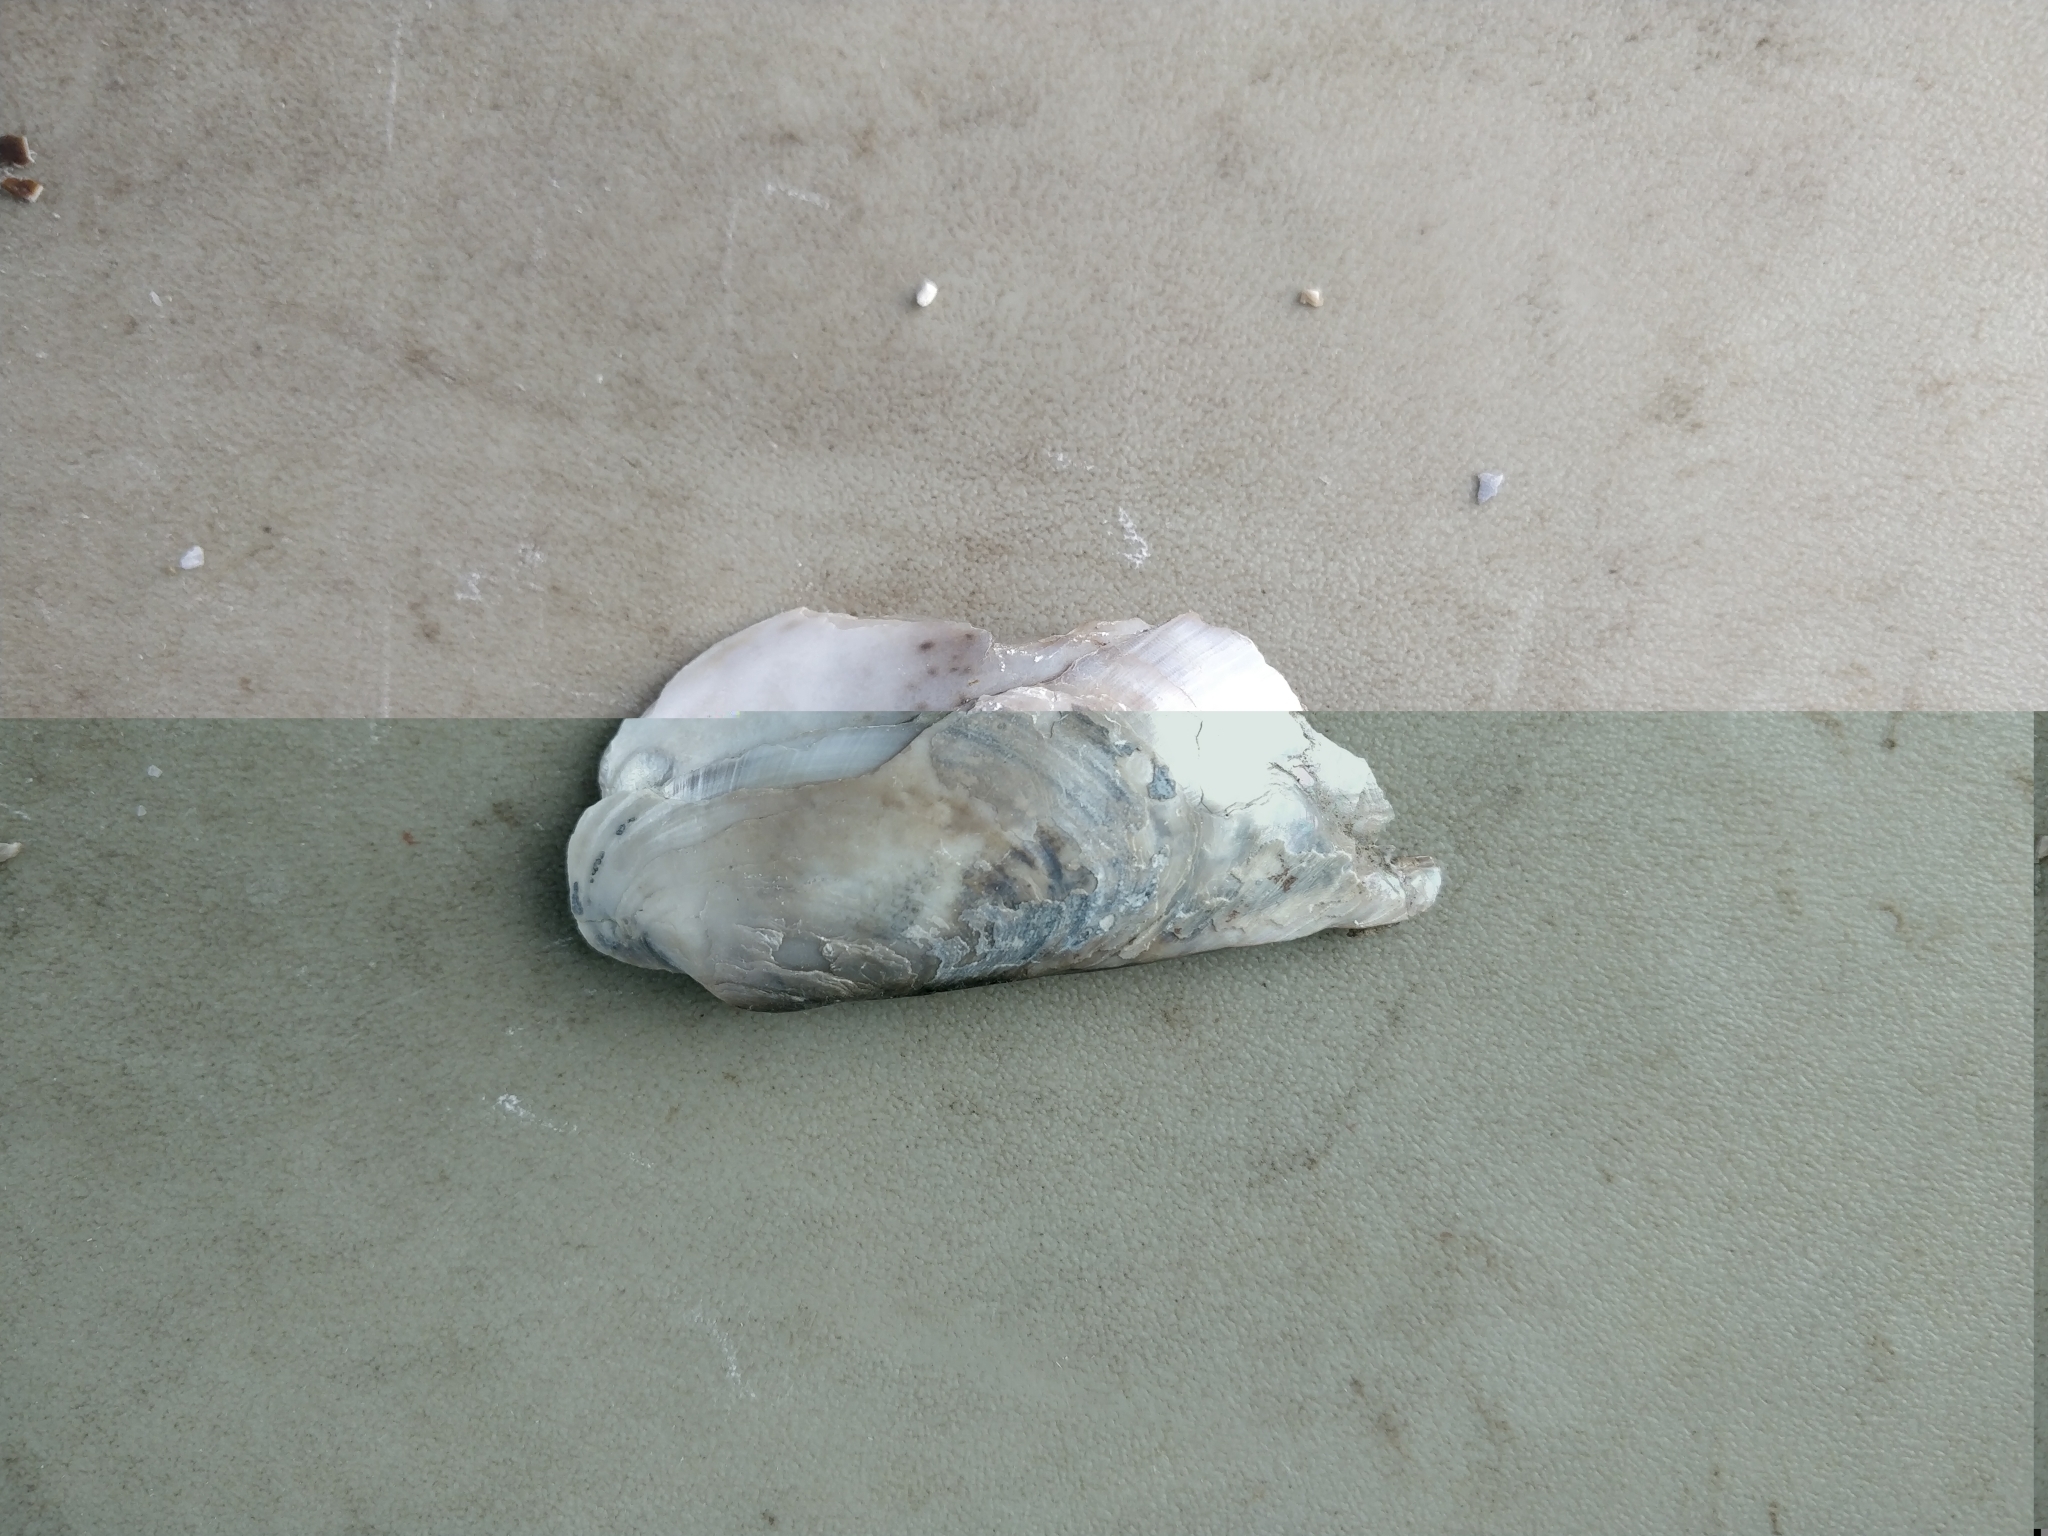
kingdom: Animalia
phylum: Mollusca
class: Bivalvia
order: Unionida
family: Unionidae
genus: Lampsilis
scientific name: Lampsilis siliquoidea
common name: Fatmucket
